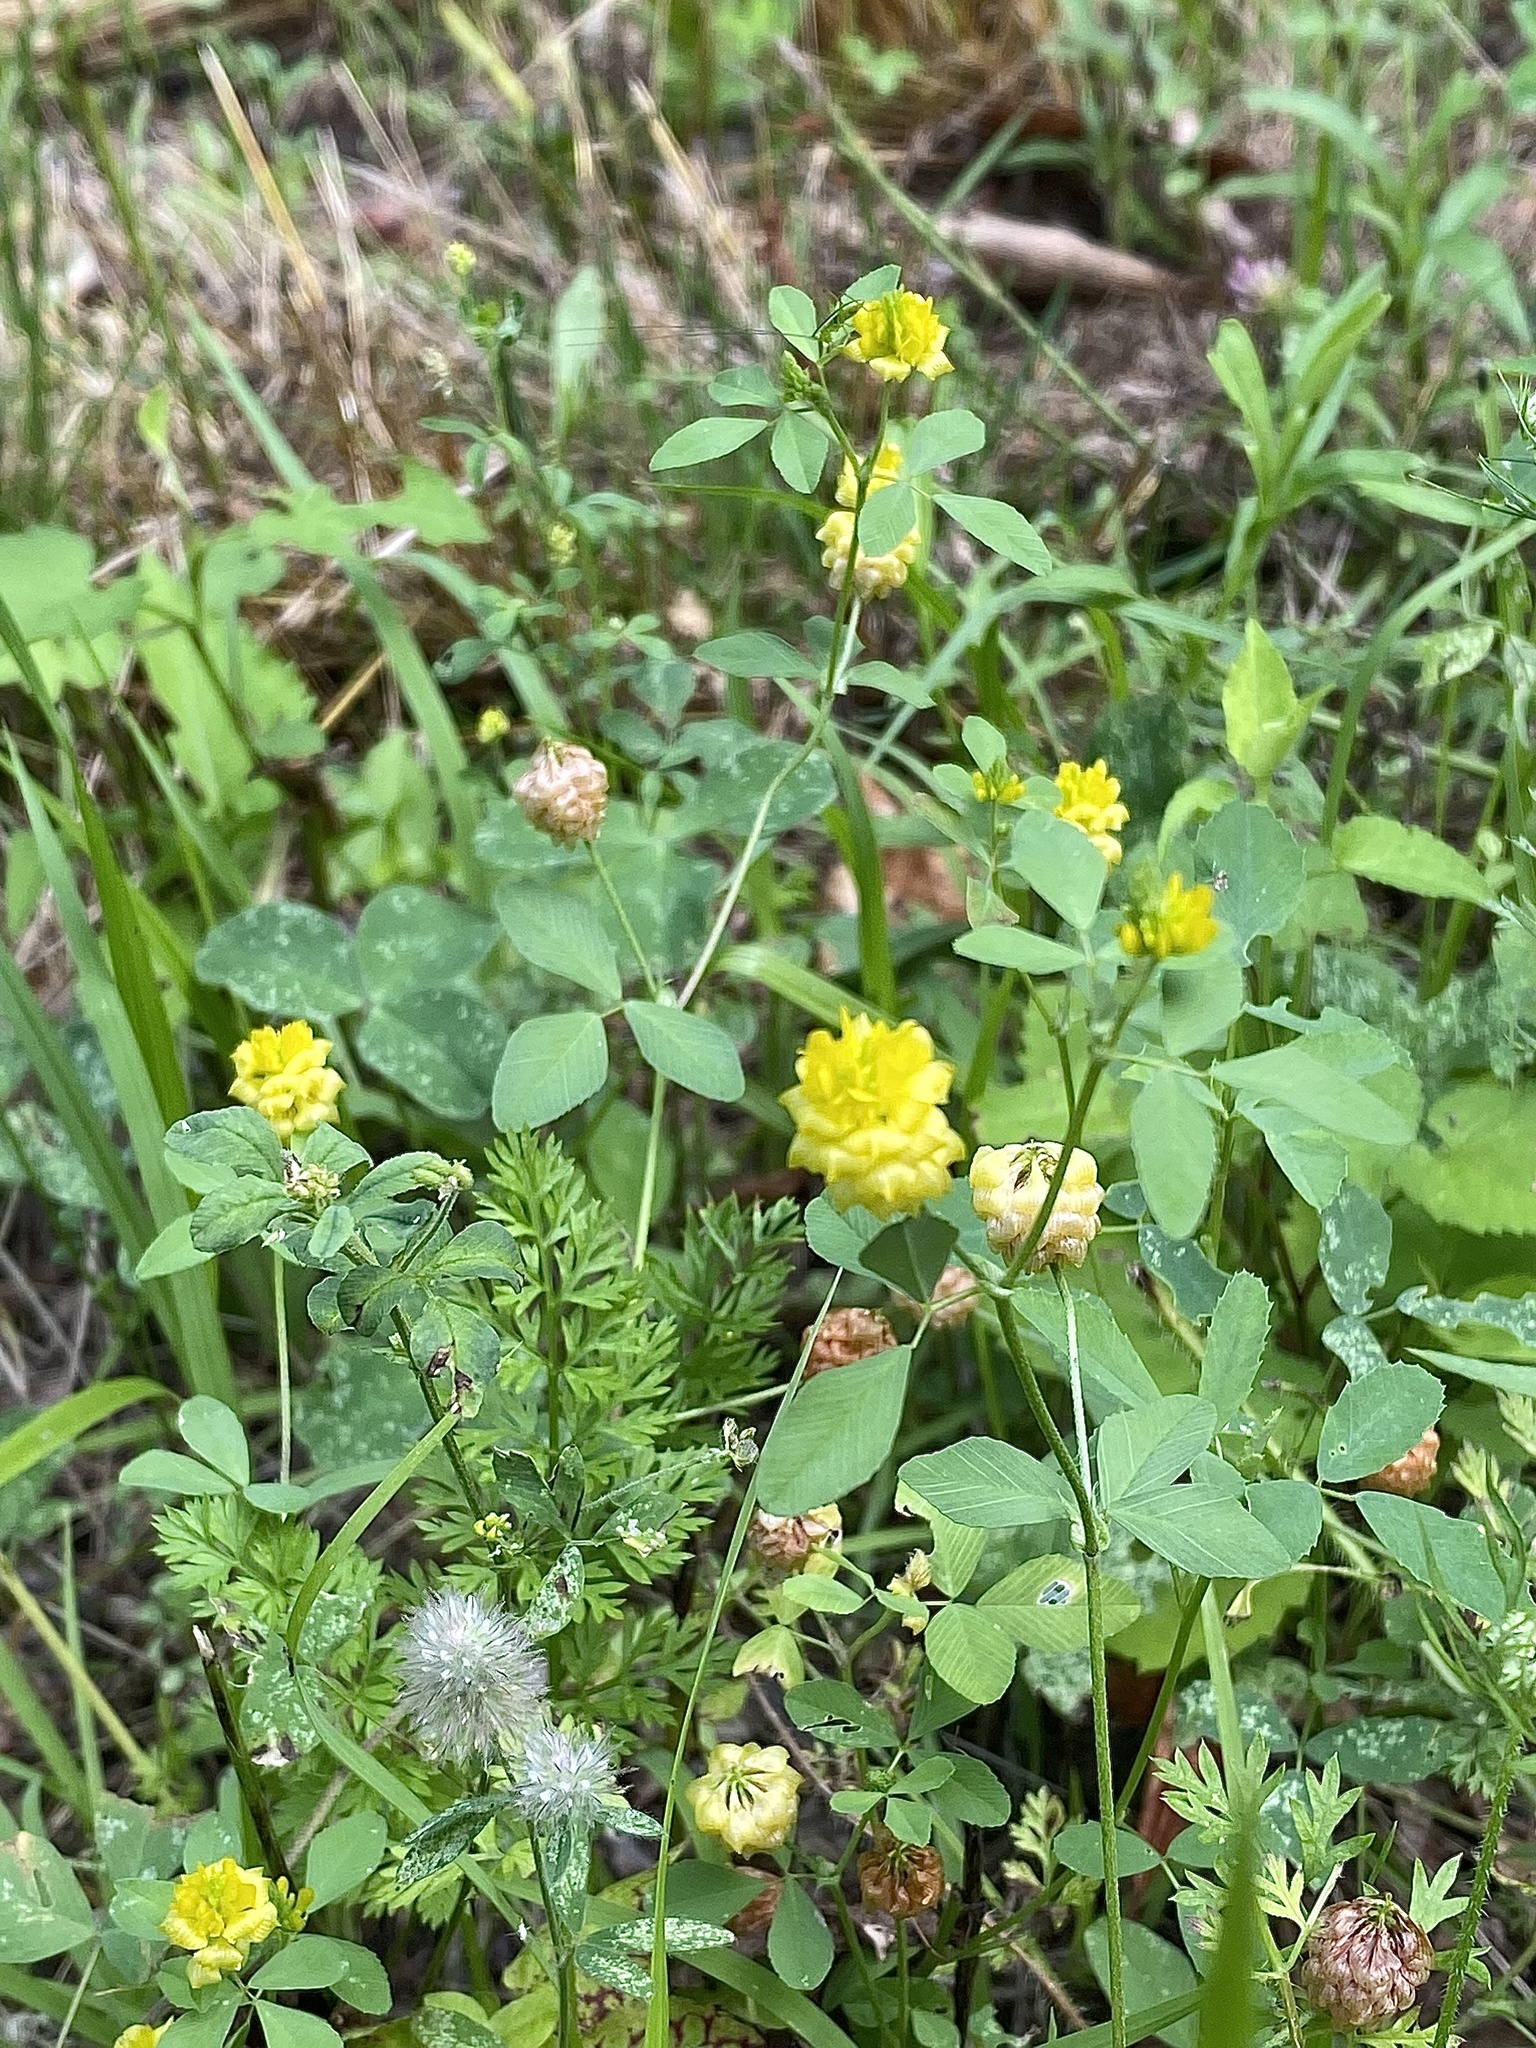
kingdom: Plantae
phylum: Tracheophyta
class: Magnoliopsida
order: Fabales
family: Fabaceae
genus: Trifolium
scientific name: Trifolium campestre
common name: Field clover
